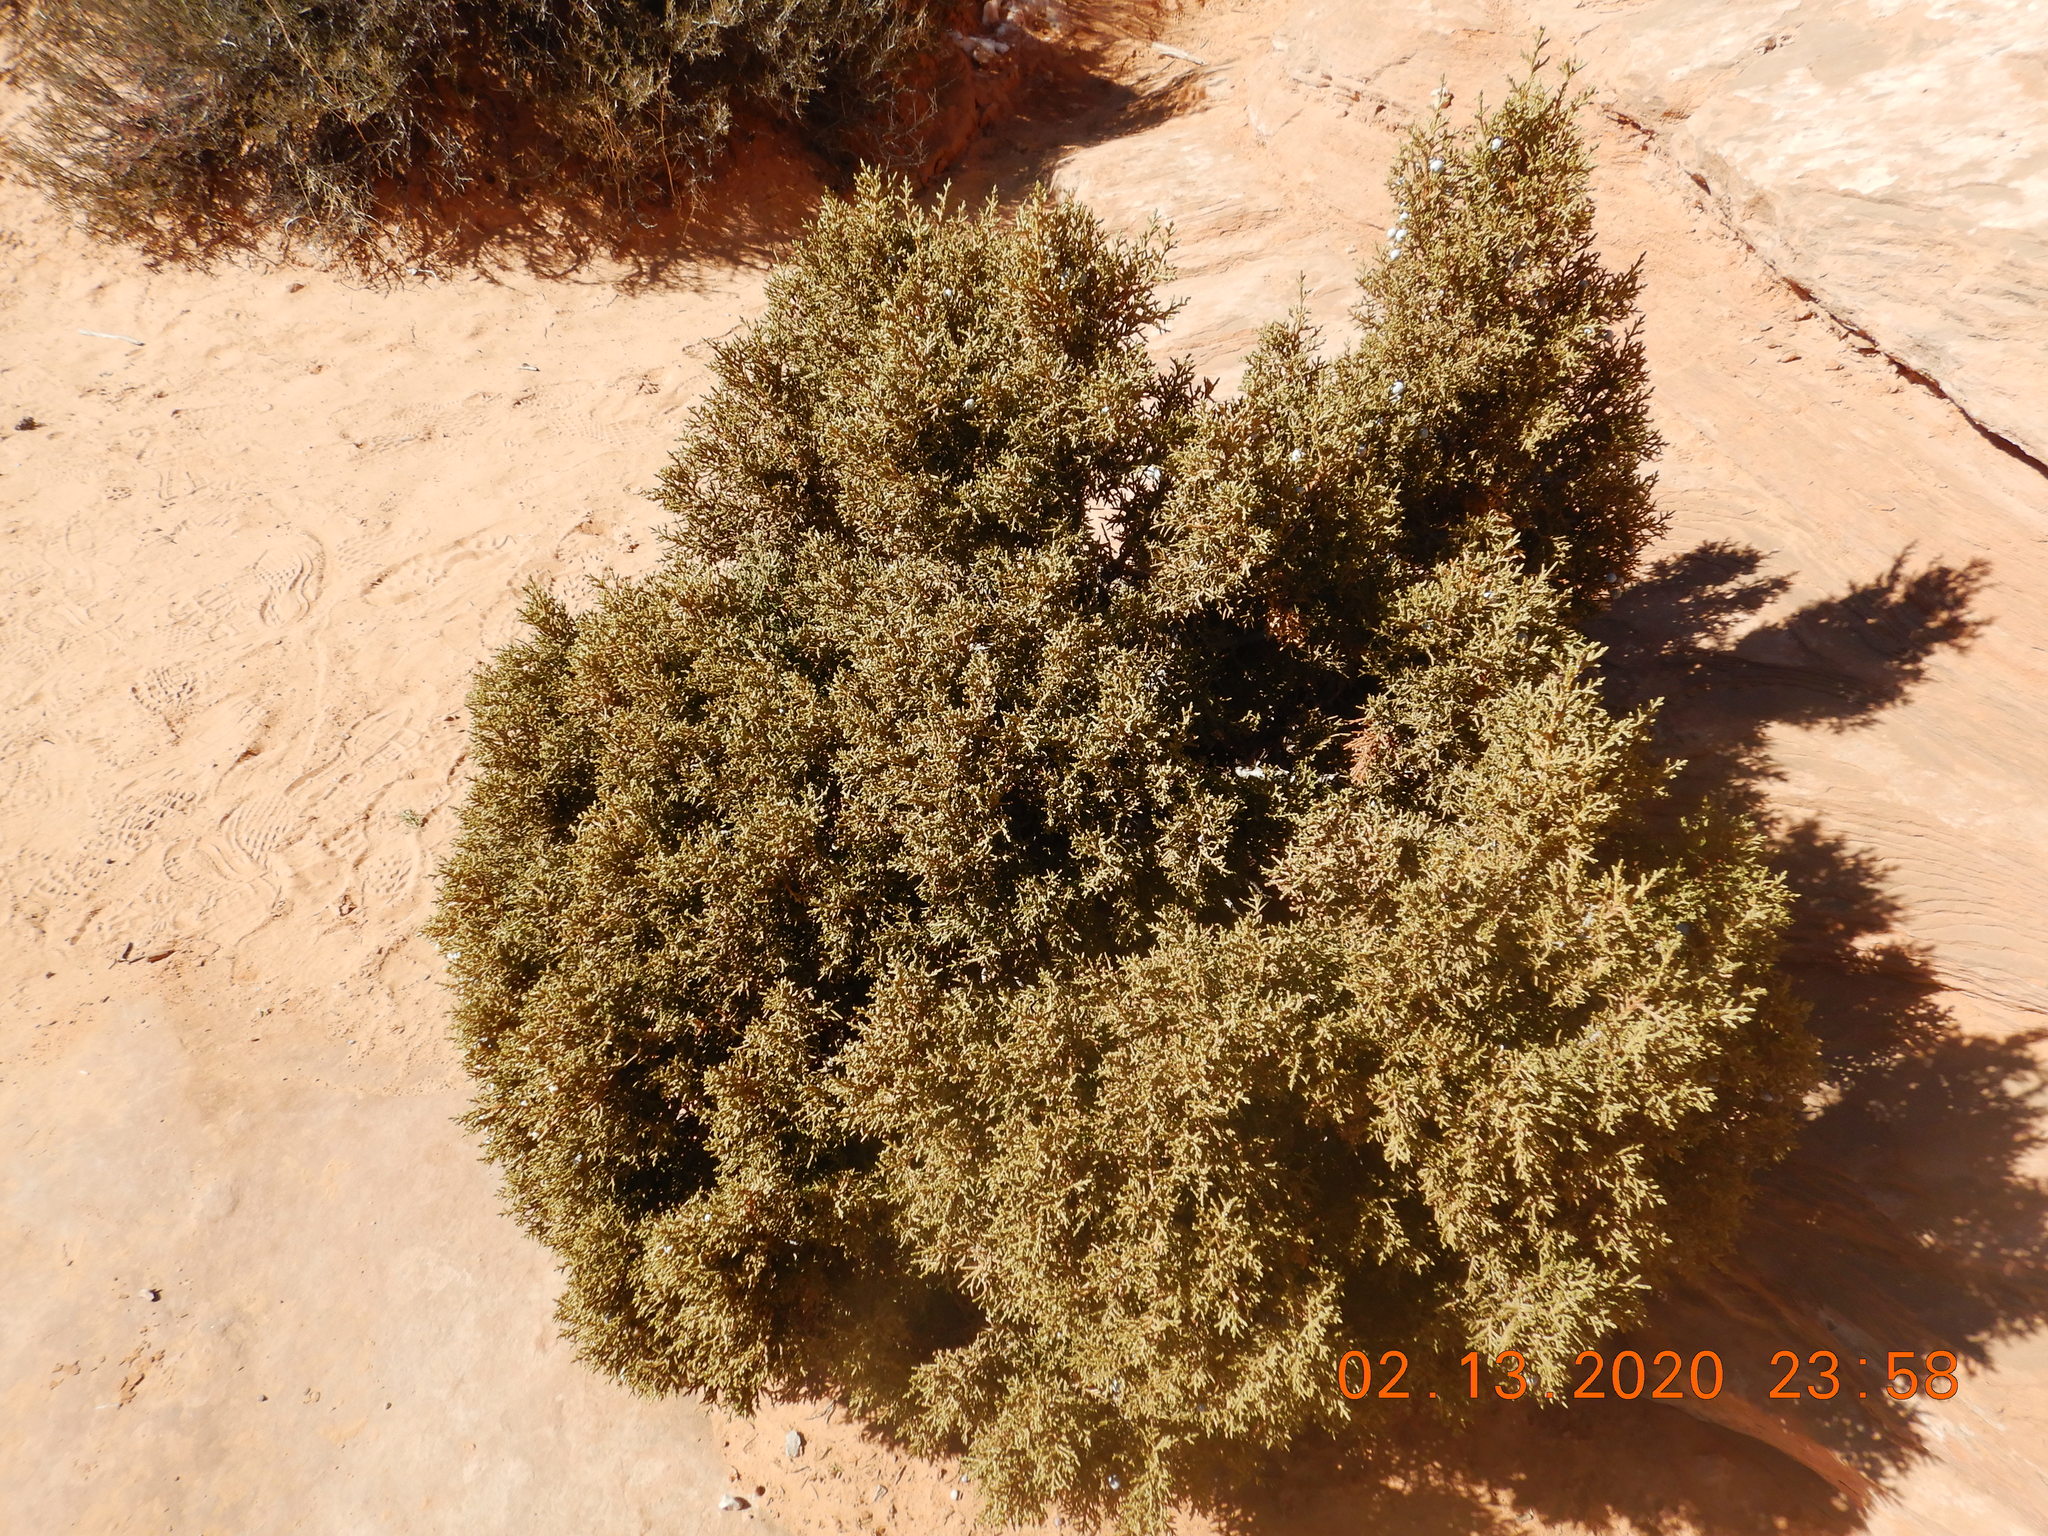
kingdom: Plantae
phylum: Tracheophyta
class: Pinopsida
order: Pinales
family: Cupressaceae
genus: Juniperus
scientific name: Juniperus osteosperma
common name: Utah juniper
